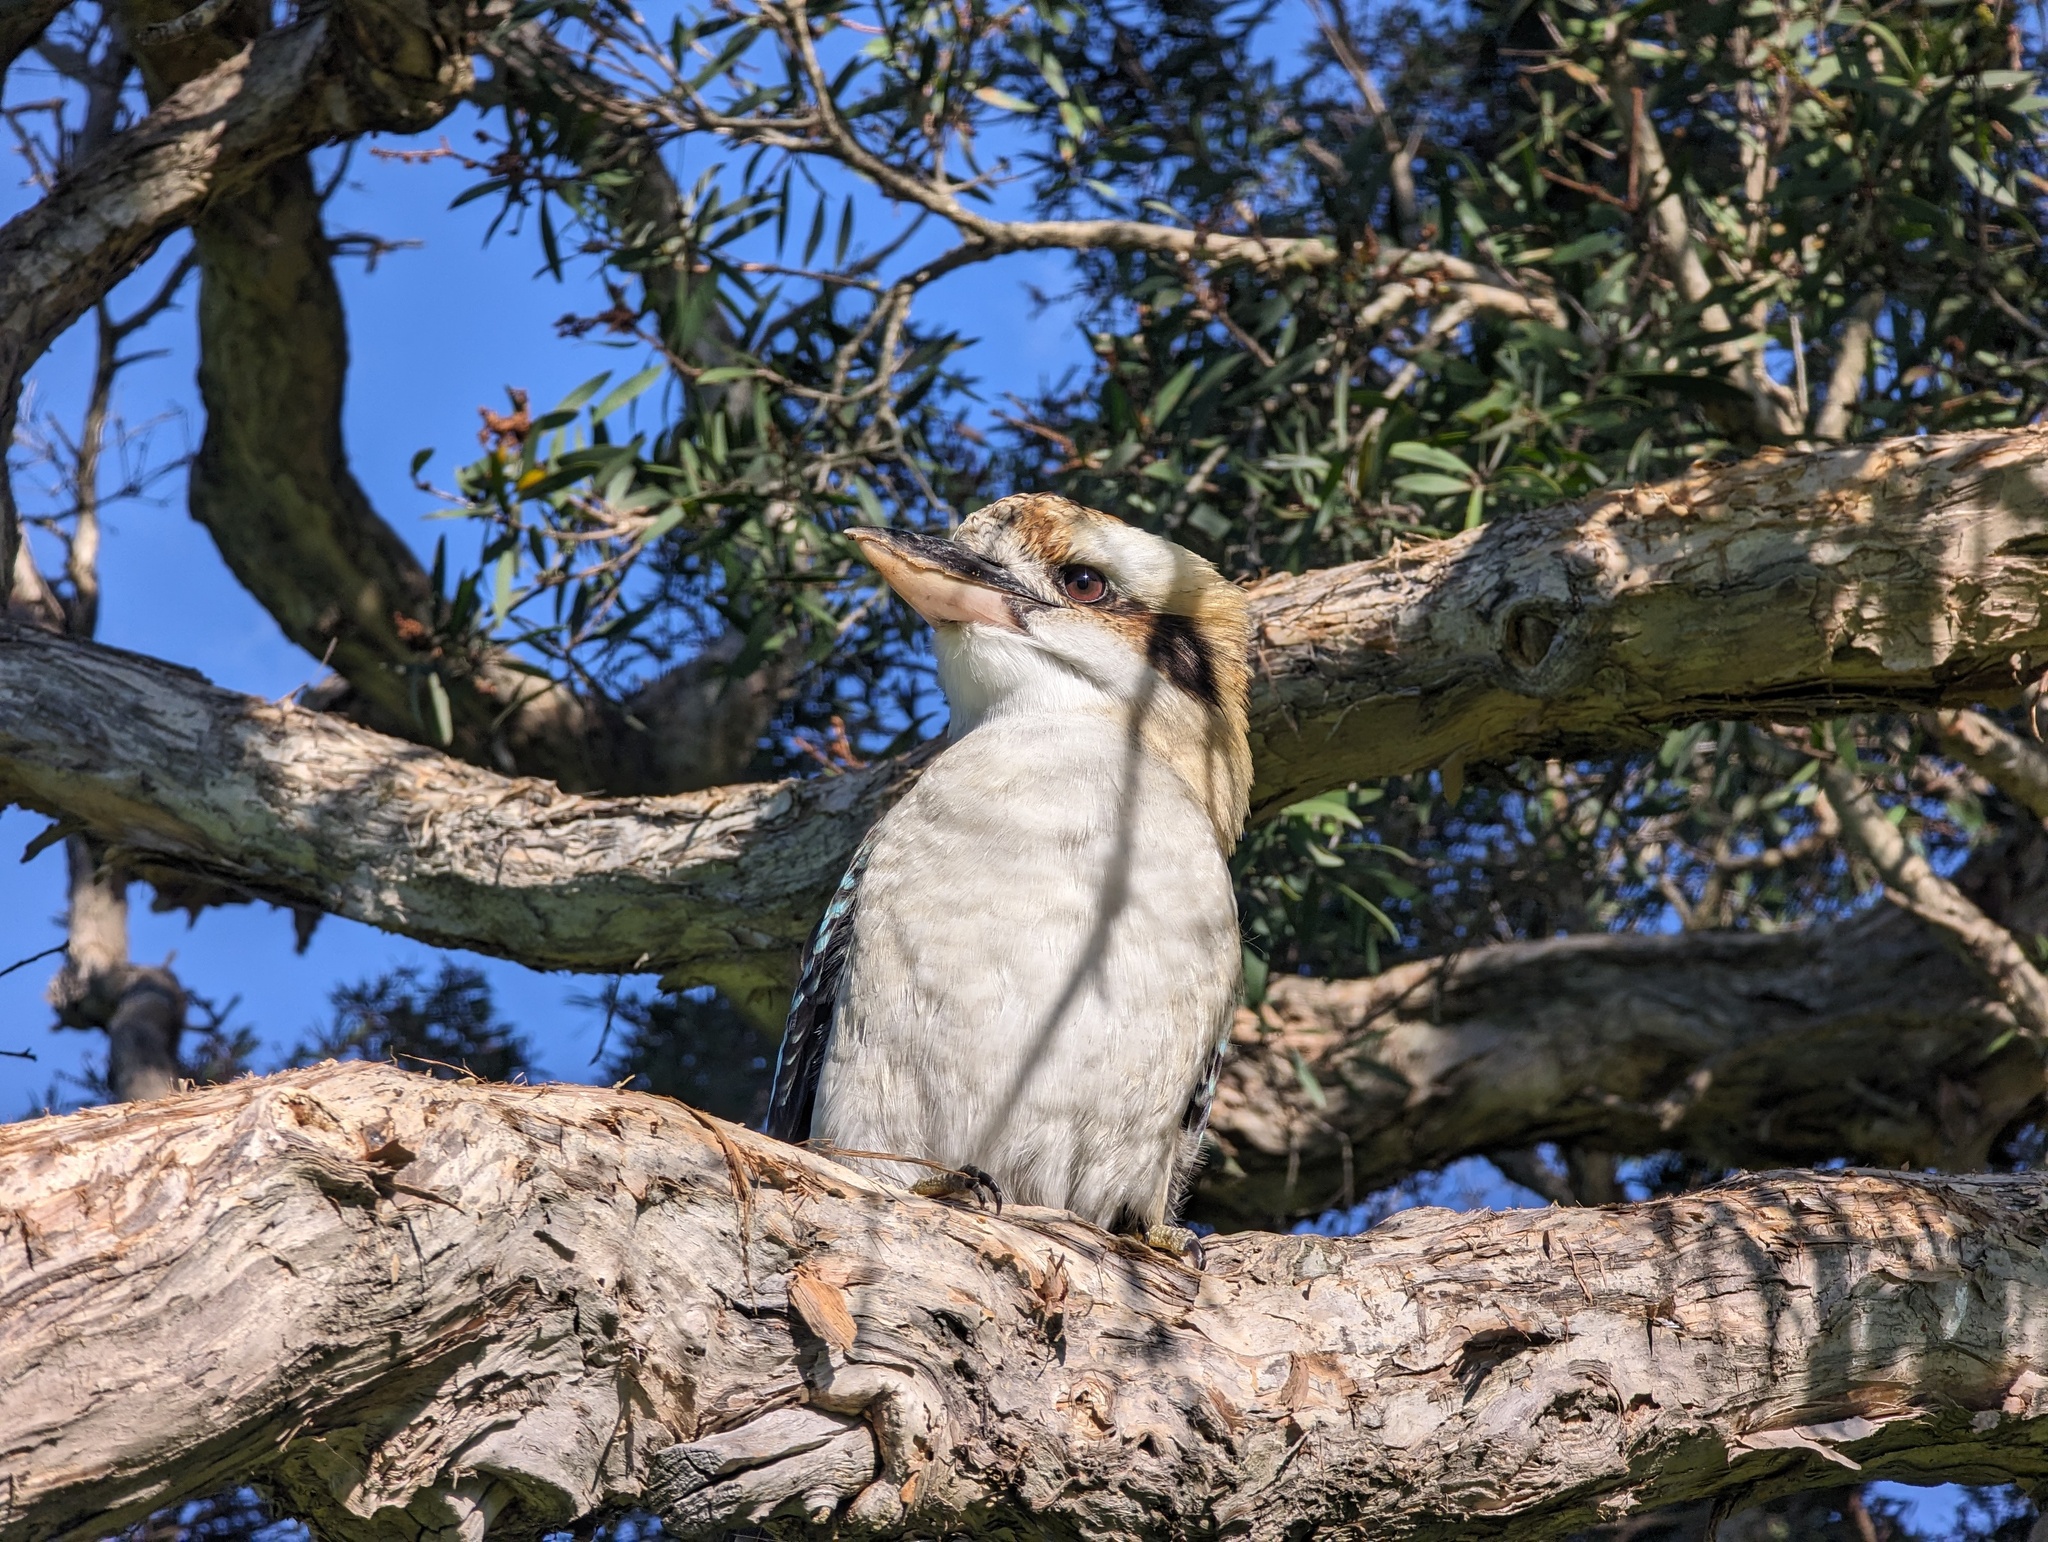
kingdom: Animalia
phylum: Chordata
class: Aves
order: Coraciiformes
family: Alcedinidae
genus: Dacelo
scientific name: Dacelo novaeguineae
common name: Laughing kookaburra
